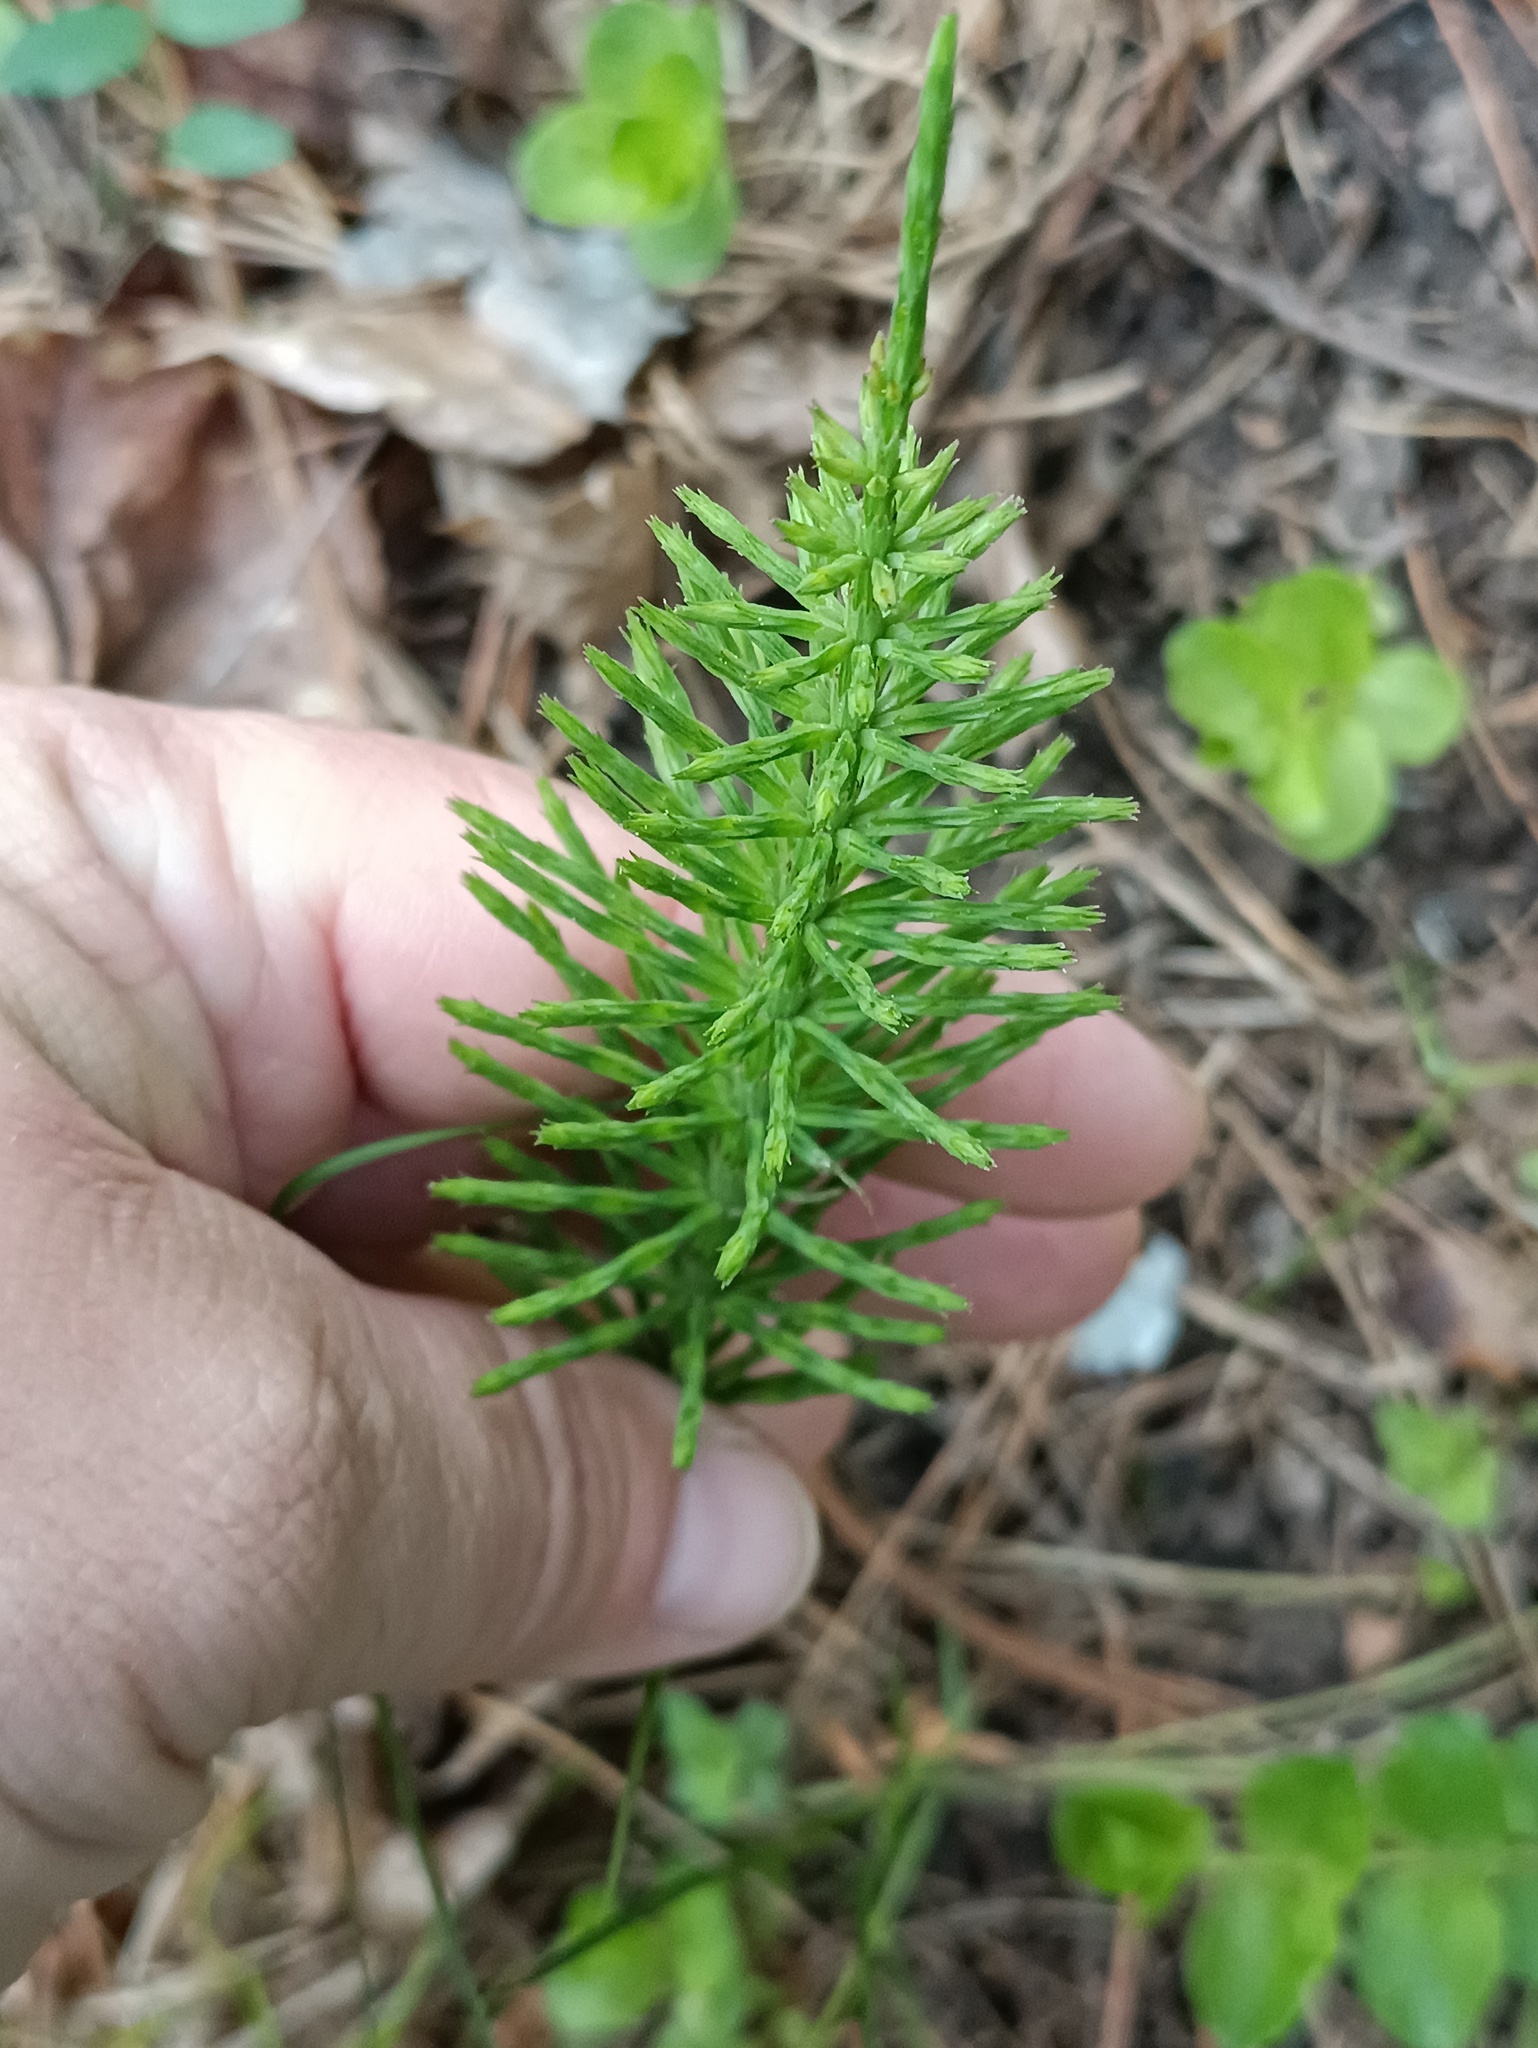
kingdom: Plantae
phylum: Tracheophyta
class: Polypodiopsida
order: Equisetales
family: Equisetaceae
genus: Equisetum
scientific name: Equisetum arvense
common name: Field horsetail
